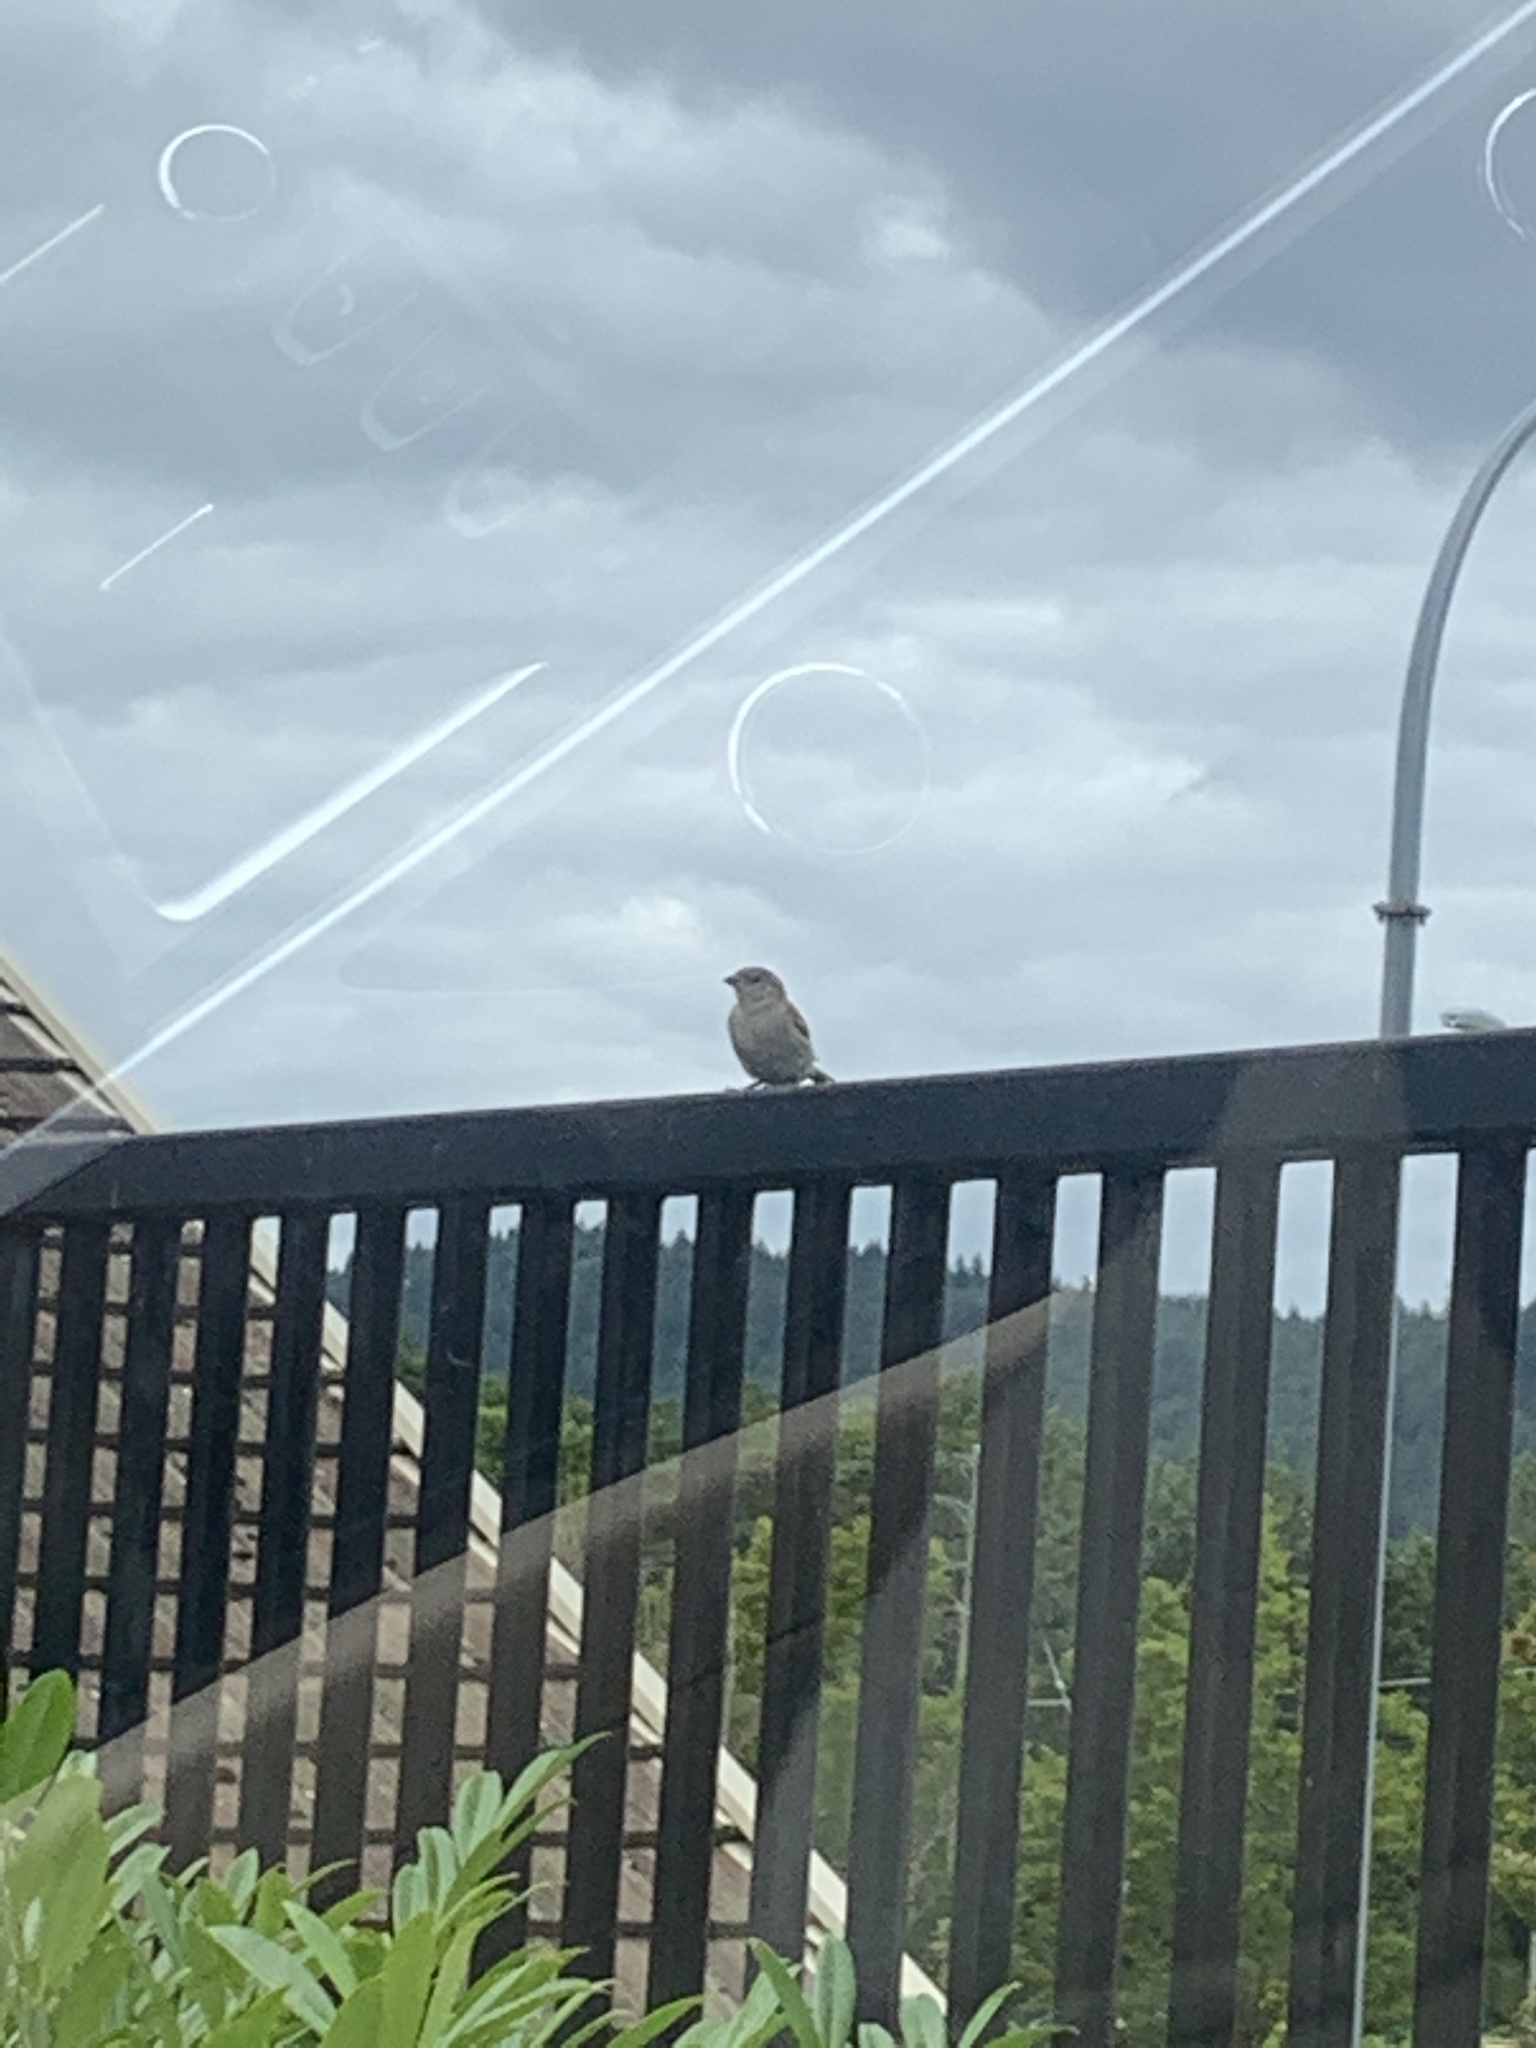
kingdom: Animalia
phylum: Chordata
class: Aves
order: Passeriformes
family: Passeridae
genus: Passer
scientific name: Passer domesticus
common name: House sparrow
